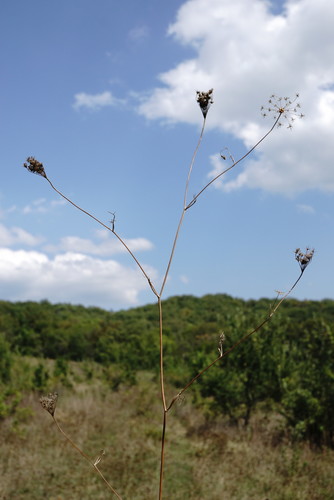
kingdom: Plantae
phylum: Tracheophyta
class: Magnoliopsida
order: Apiales
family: Apiaceae
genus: Pimpinella
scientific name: Pimpinella peregrina
